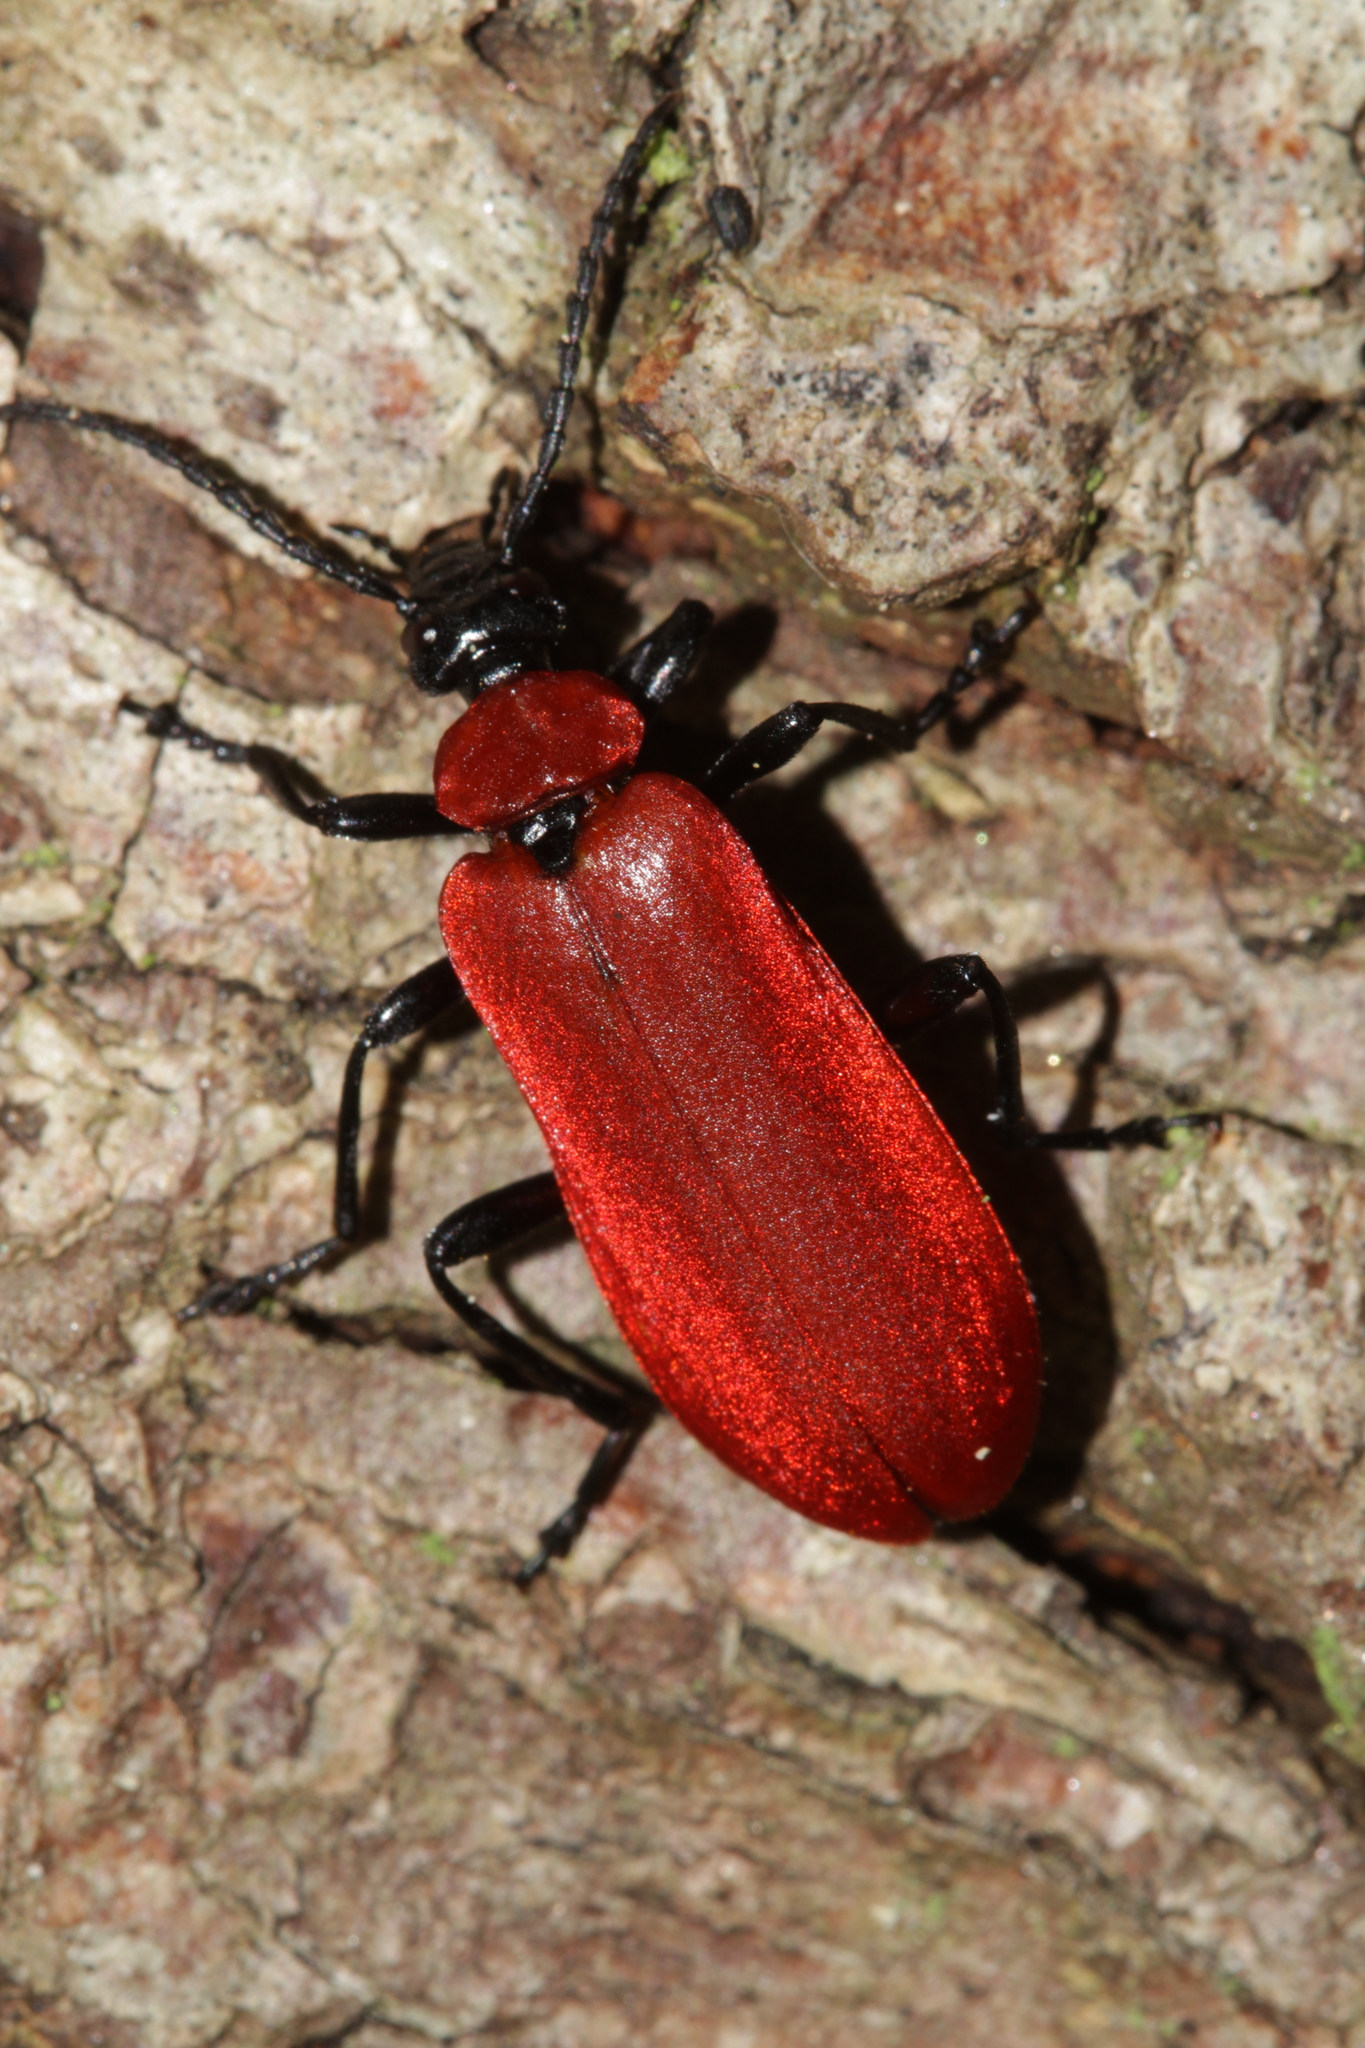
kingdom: Animalia
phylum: Arthropoda
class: Insecta
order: Coleoptera
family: Pyrochroidae
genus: Pyrochroa
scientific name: Pyrochroa coccinea
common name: Black-headed cardinal beetle
